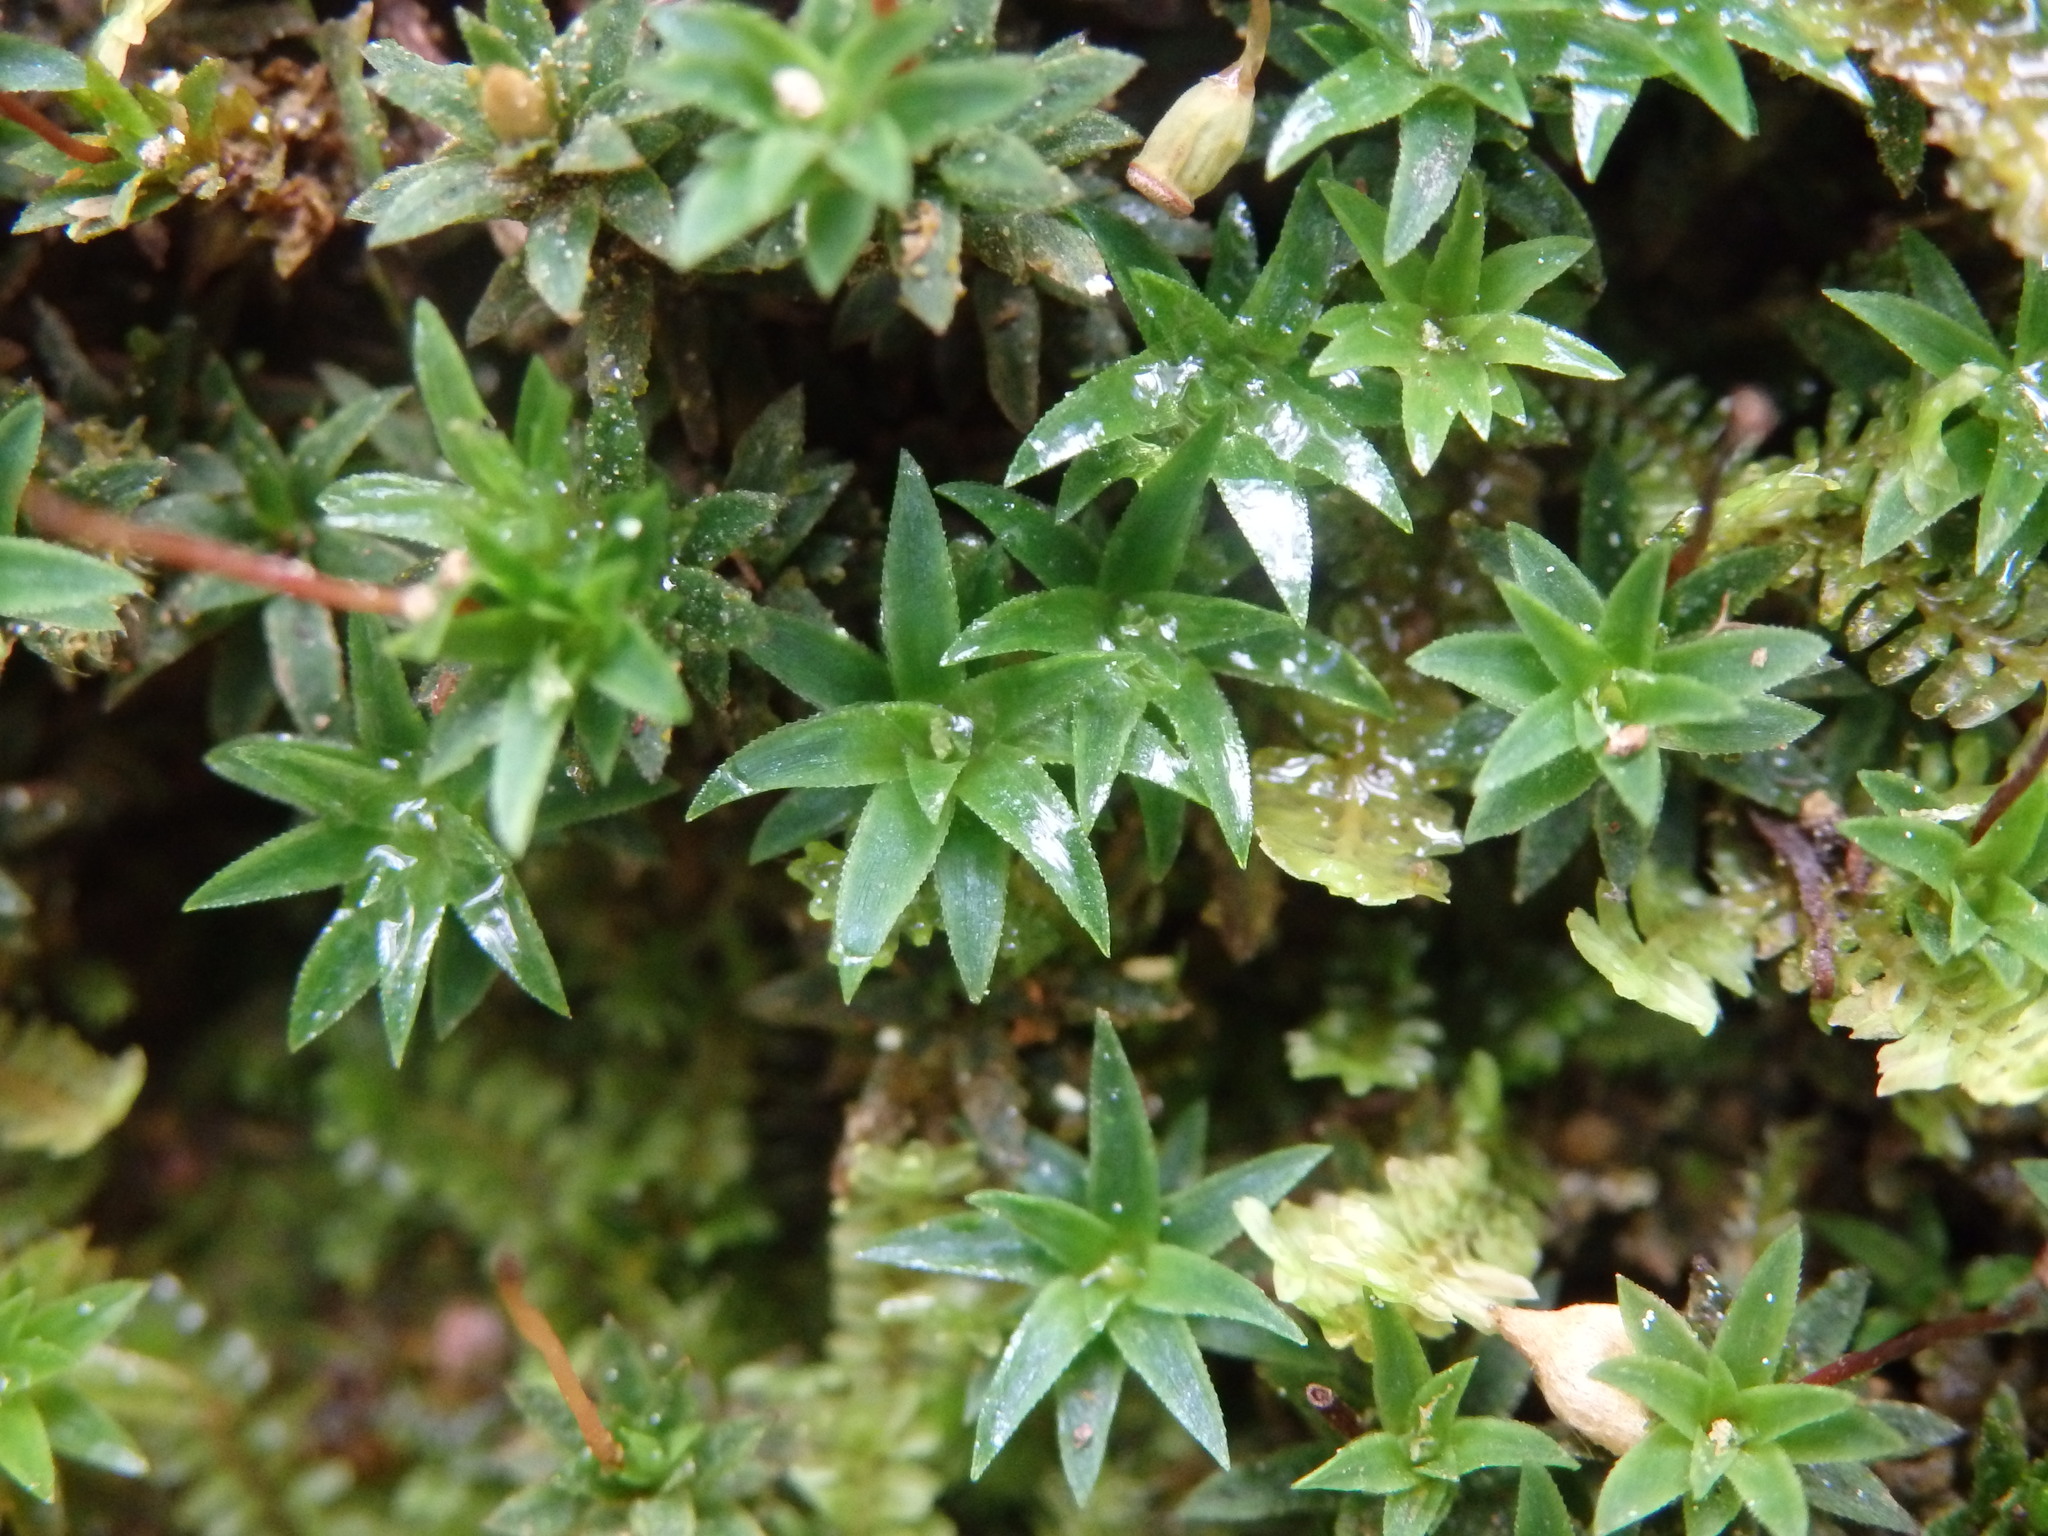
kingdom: Plantae
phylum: Bryophyta
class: Polytrichopsida
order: Polytrichales
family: Polytrichaceae
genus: Pogonatum
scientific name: Pogonatum aloides
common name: Aloe haircap
